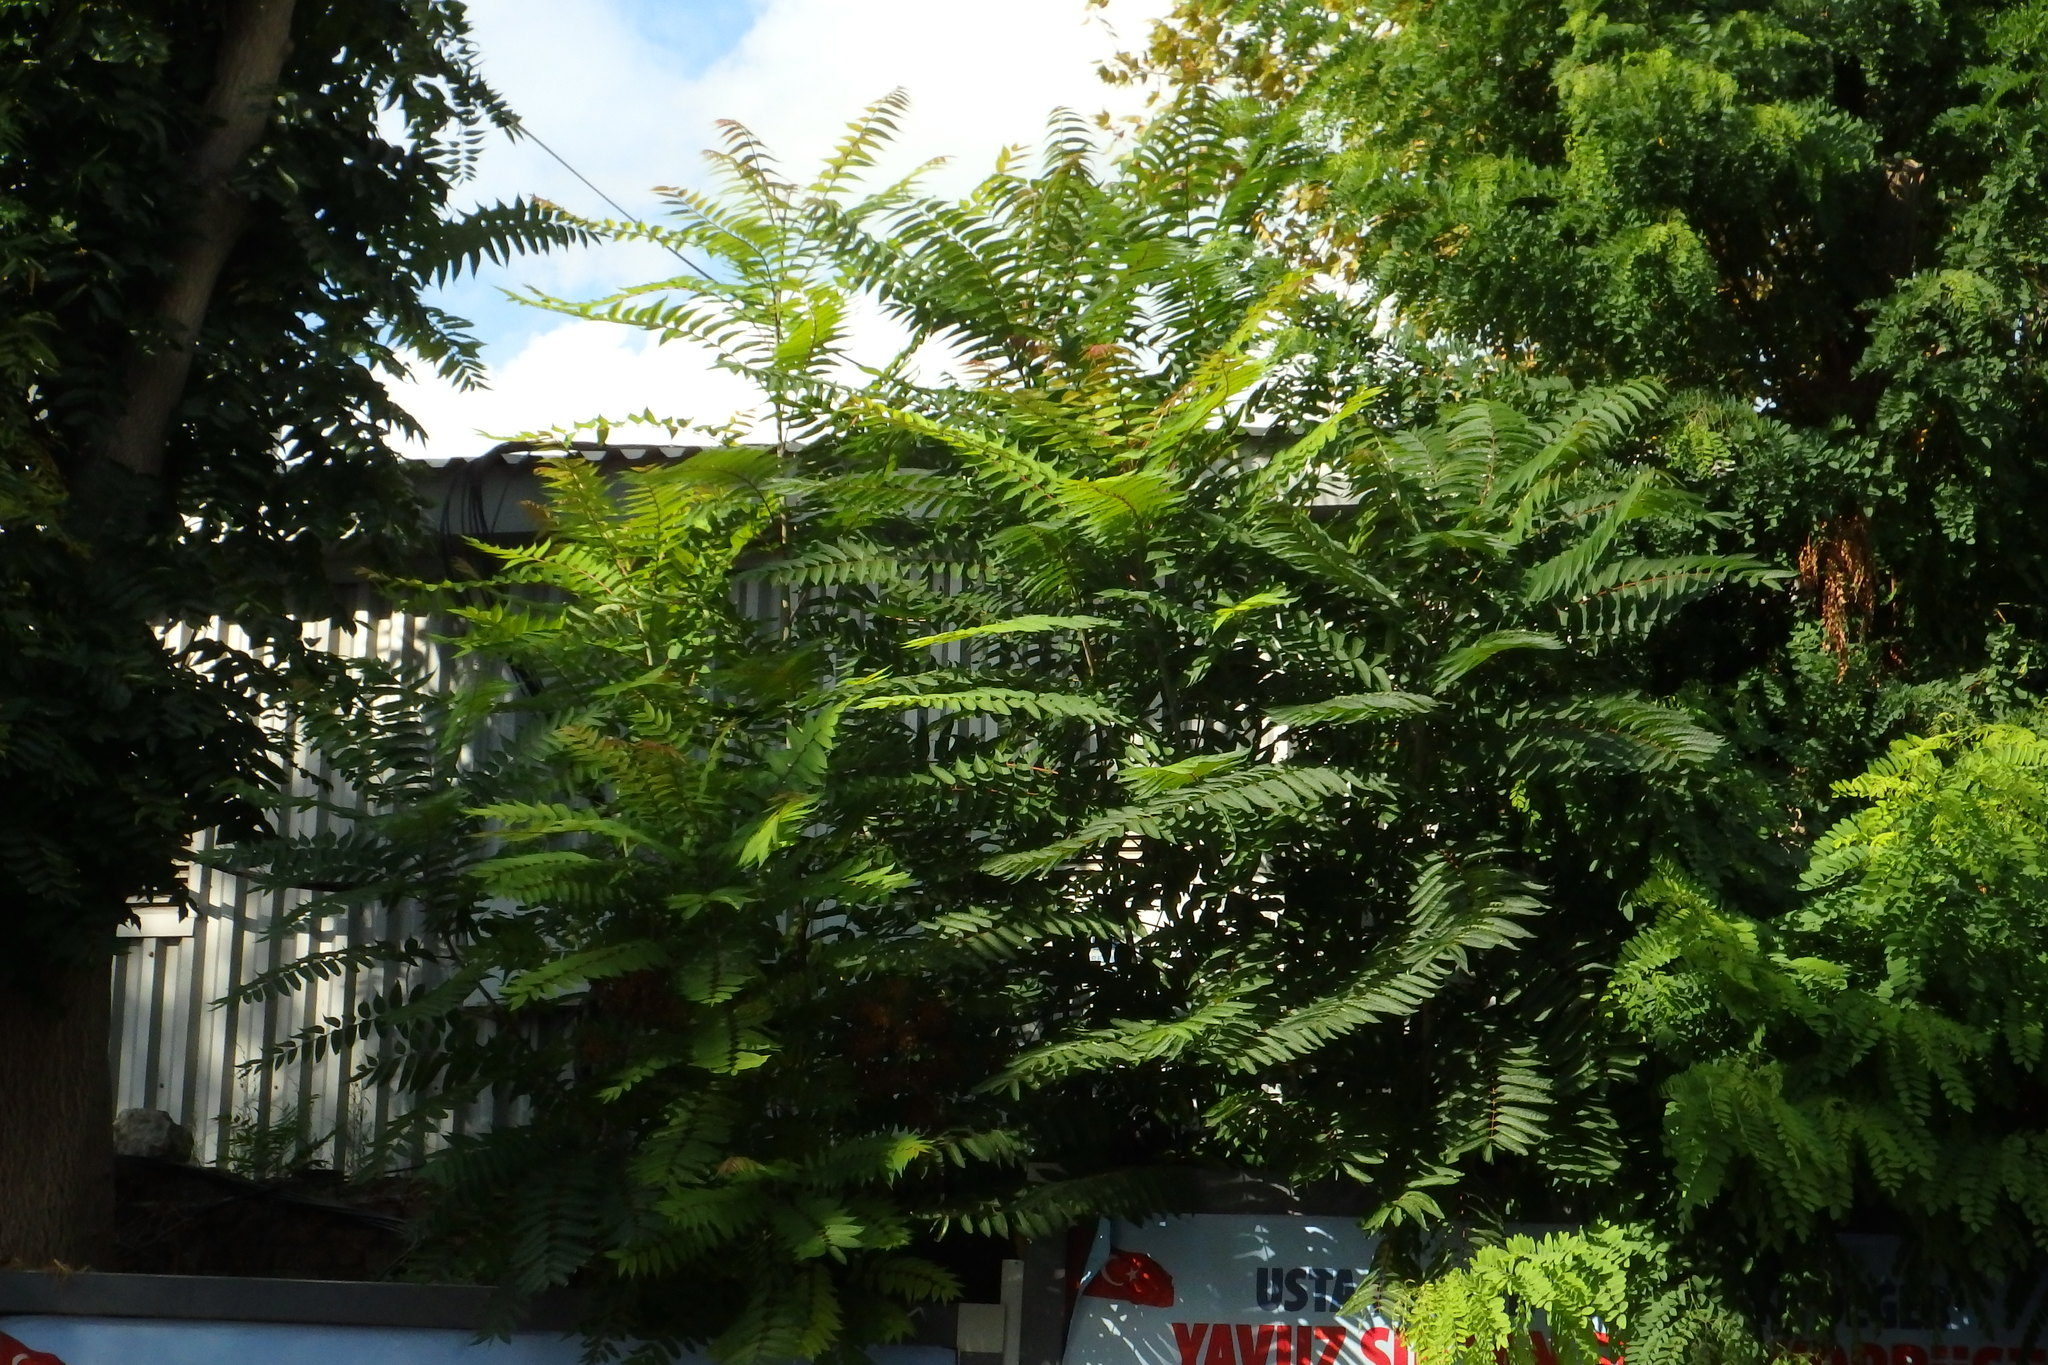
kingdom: Plantae
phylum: Tracheophyta
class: Magnoliopsida
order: Sapindales
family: Simaroubaceae
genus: Ailanthus
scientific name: Ailanthus altissima
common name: Tree-of-heaven
